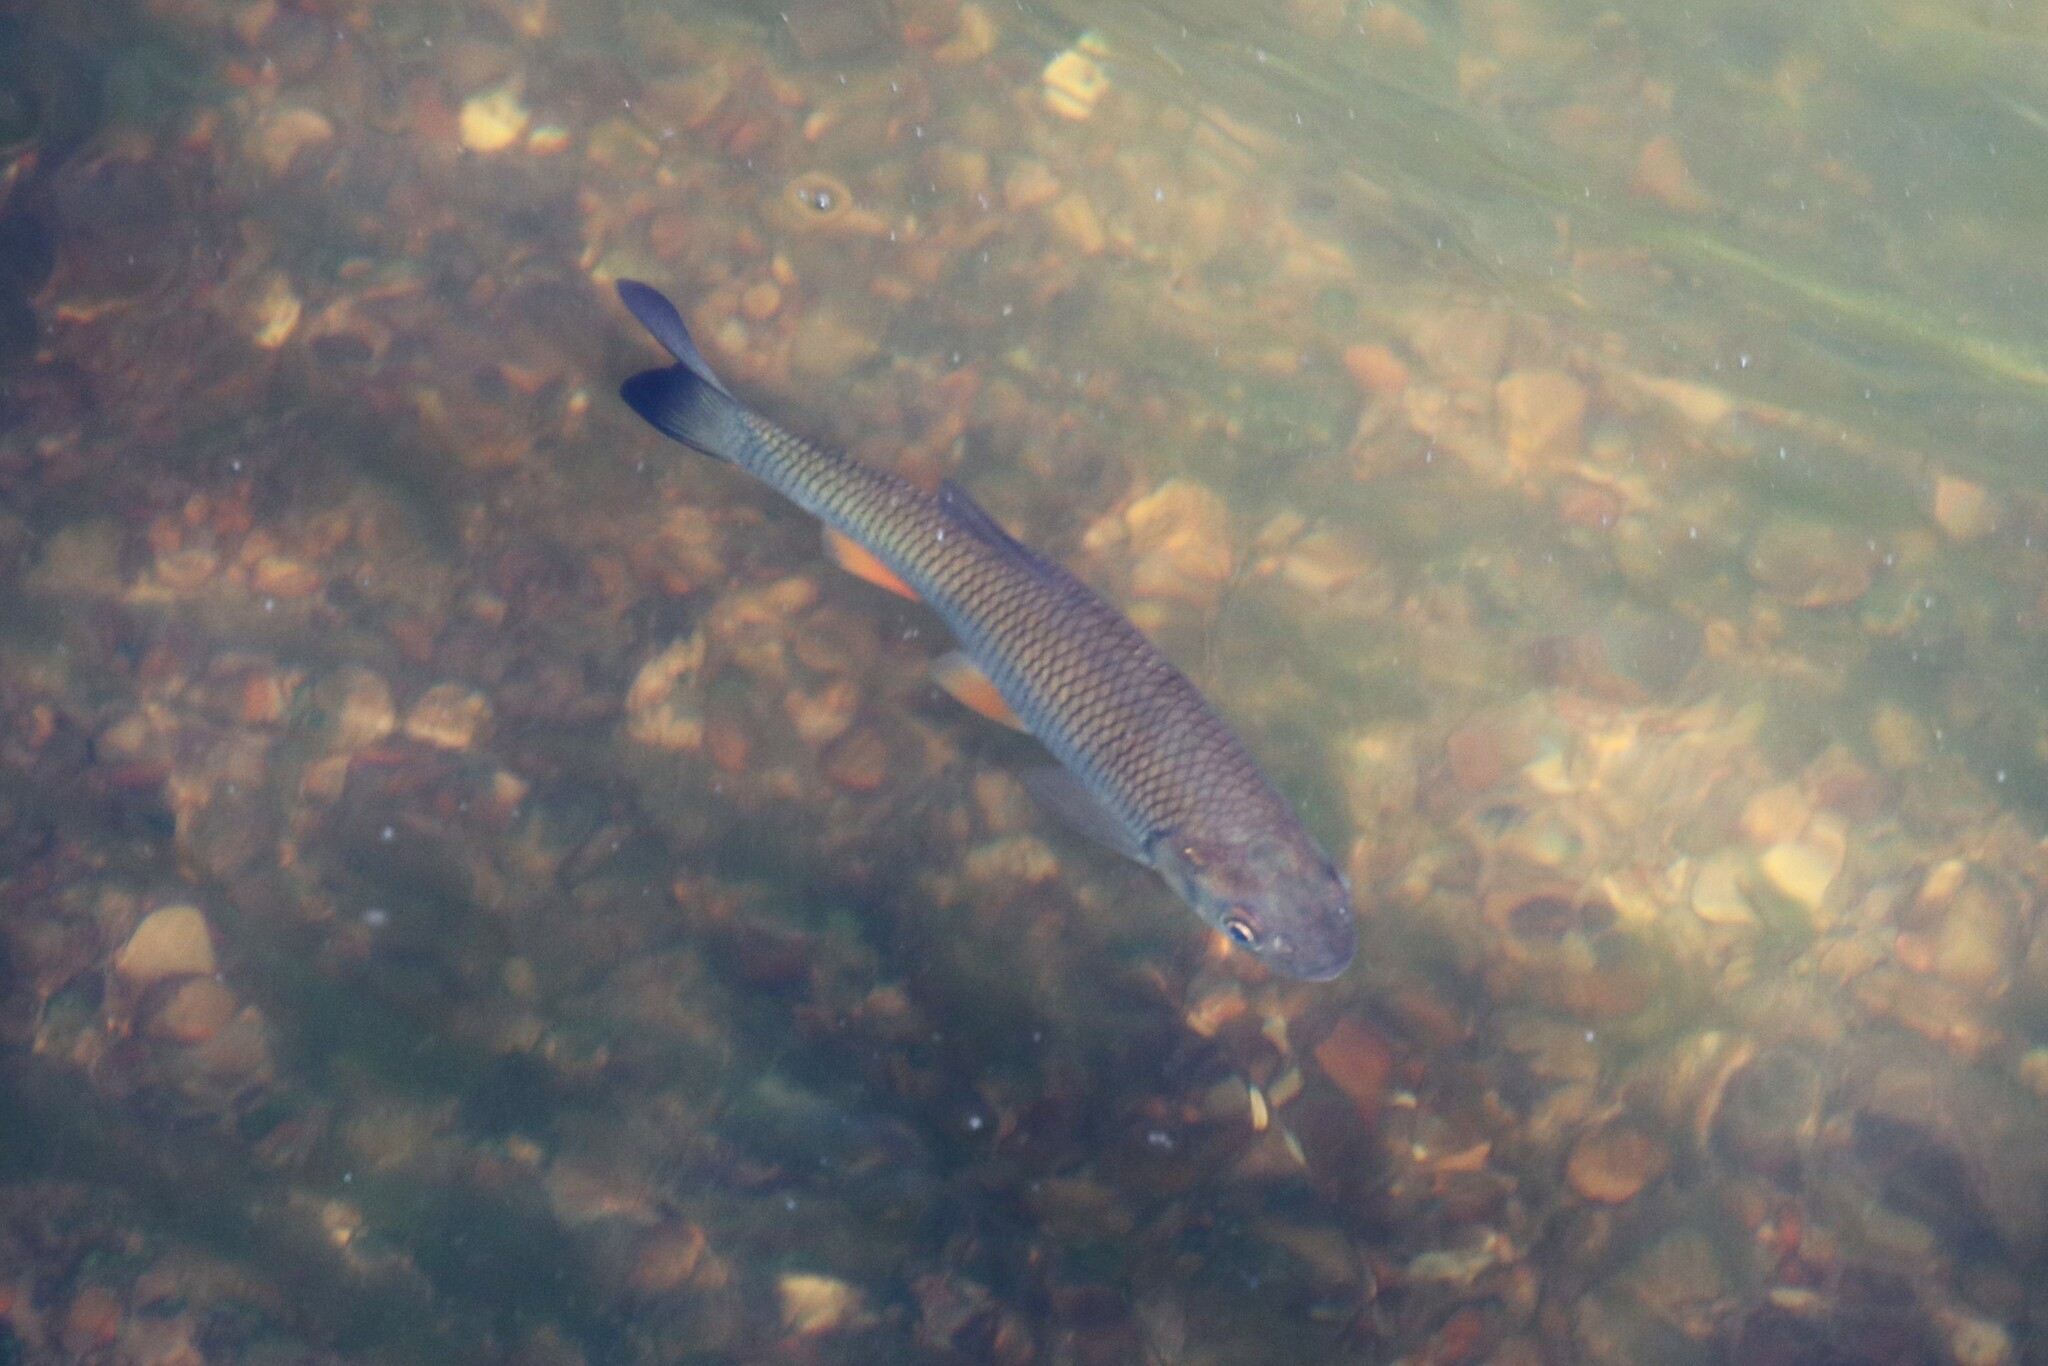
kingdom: Animalia
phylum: Chordata
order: Cypriniformes
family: Cyprinidae
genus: Squalius
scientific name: Squalius cephalus
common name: Chub
